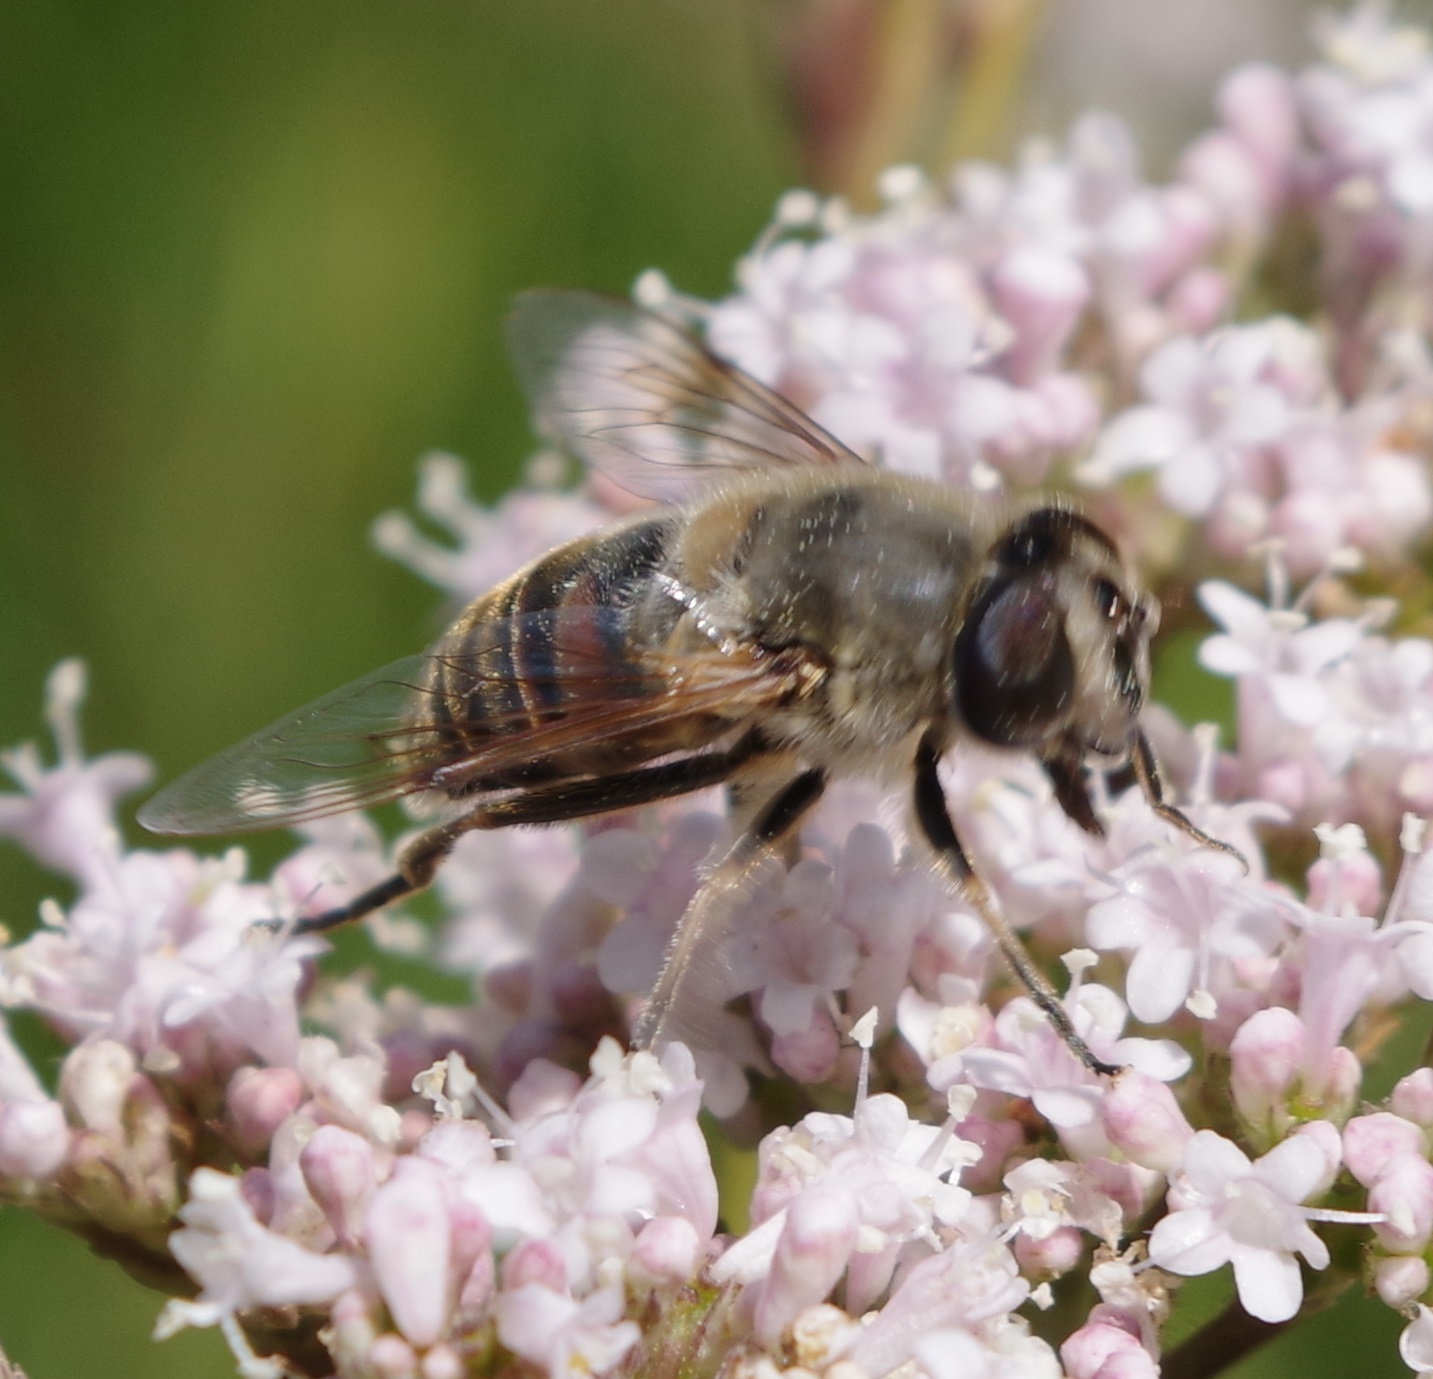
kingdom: Animalia
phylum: Arthropoda
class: Insecta
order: Diptera
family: Syrphidae
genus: Eristalis
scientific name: Eristalis tenax
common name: Drone fly
